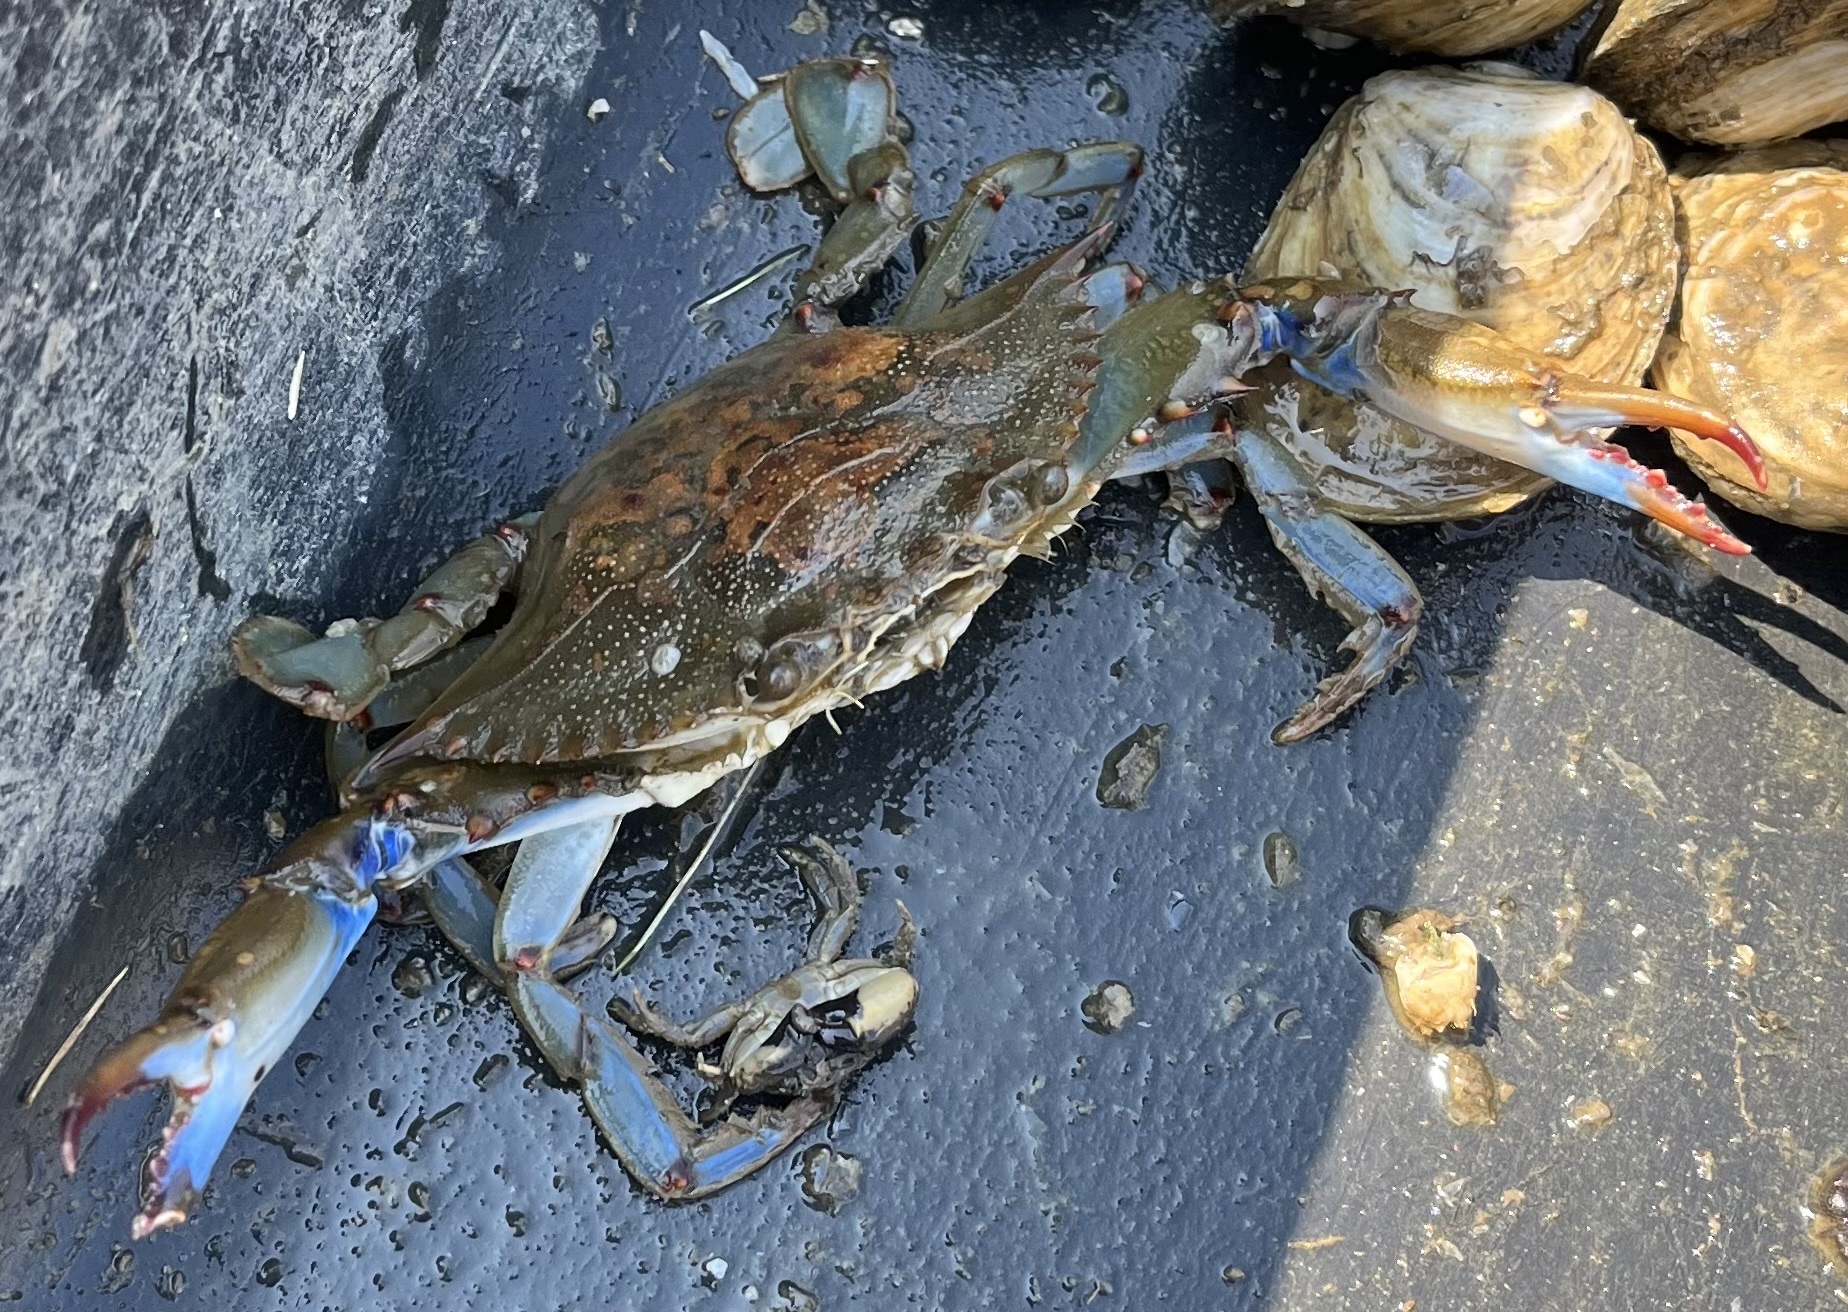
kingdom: Animalia
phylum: Arthropoda
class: Malacostraca
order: Decapoda
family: Portunidae
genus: Callinectes
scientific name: Callinectes sapidus
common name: Blue crab
